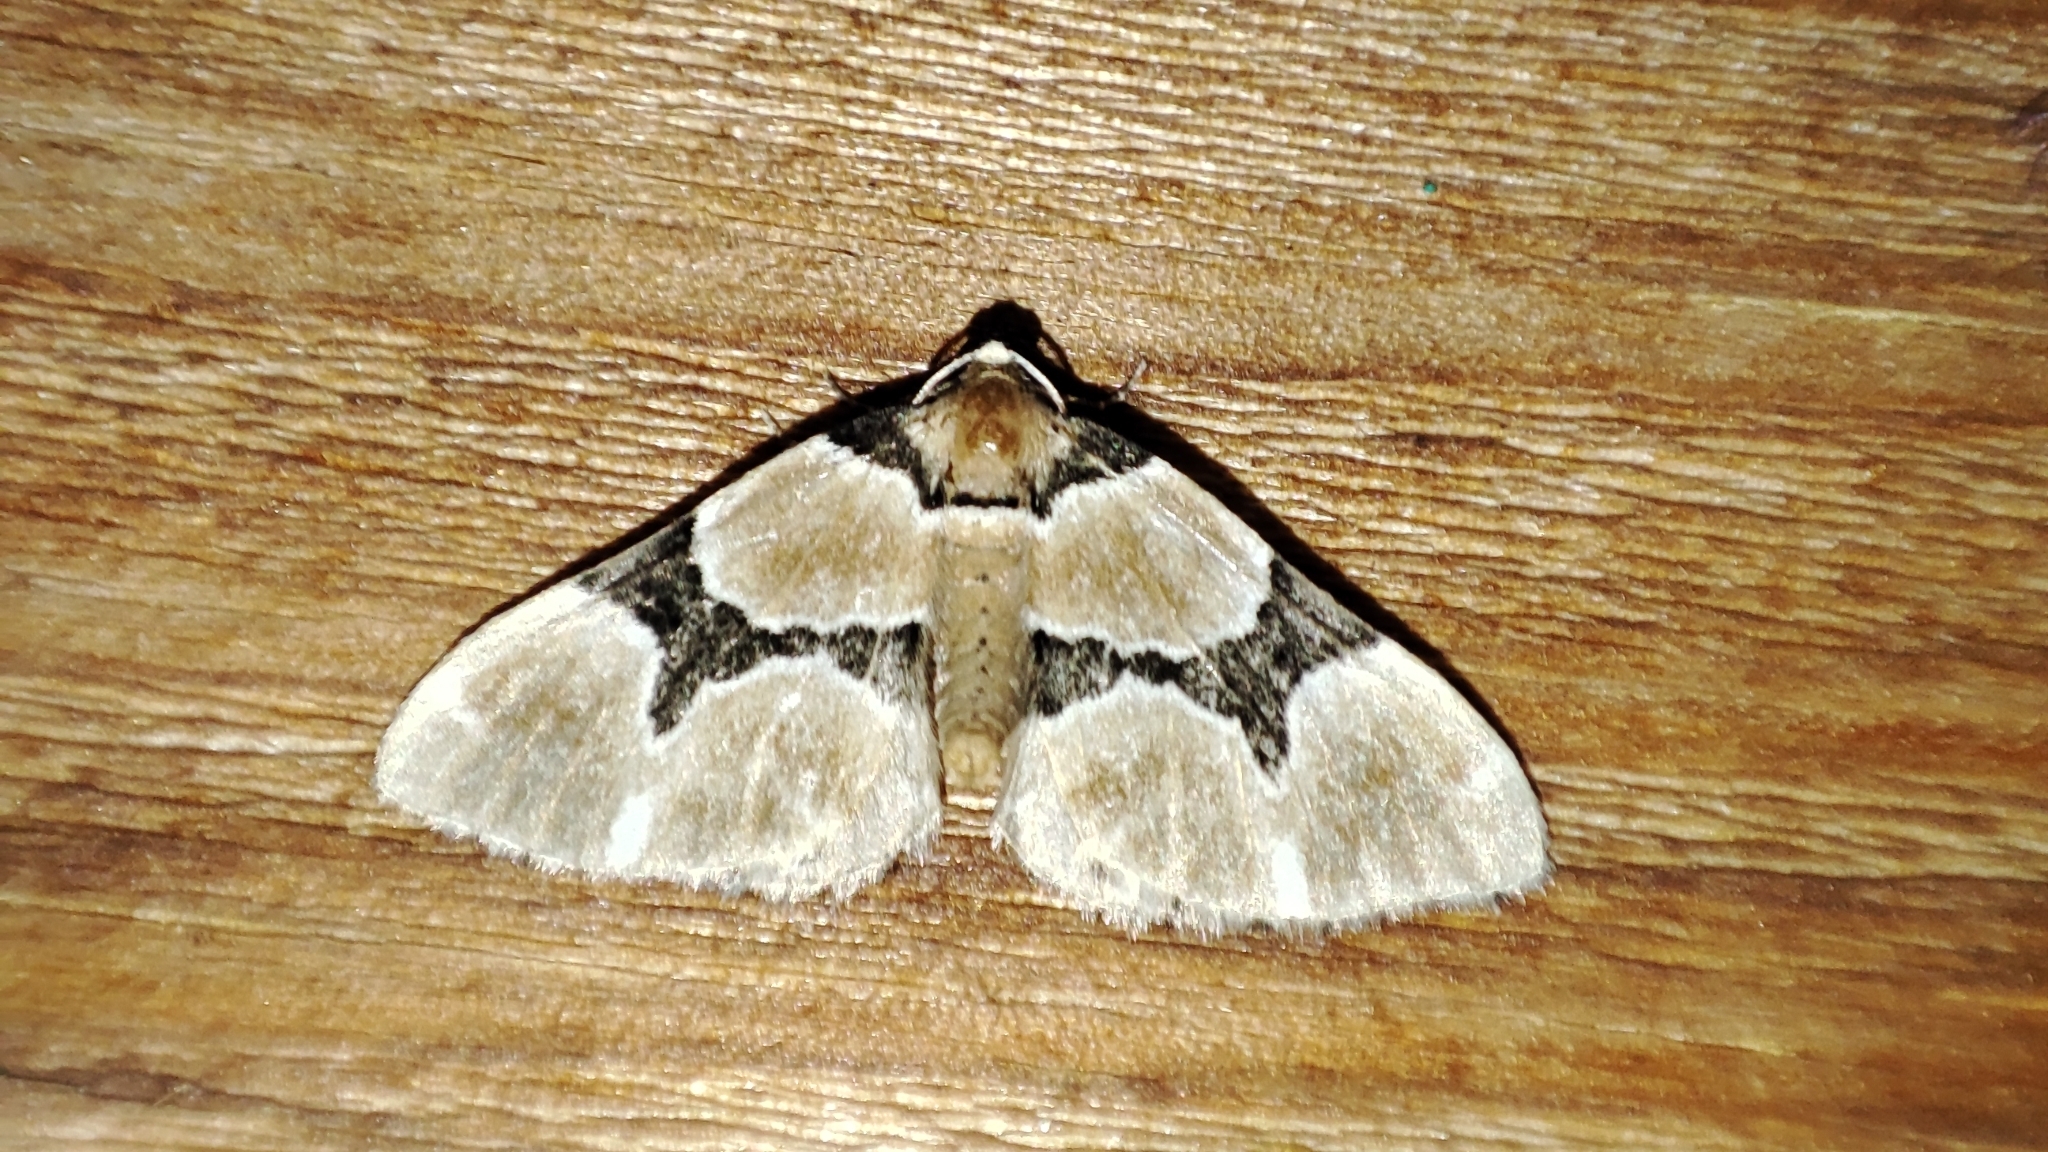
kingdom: Animalia
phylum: Arthropoda
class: Insecta
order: Lepidoptera
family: Geometridae
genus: Perizoma
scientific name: Perizoma sagittata
